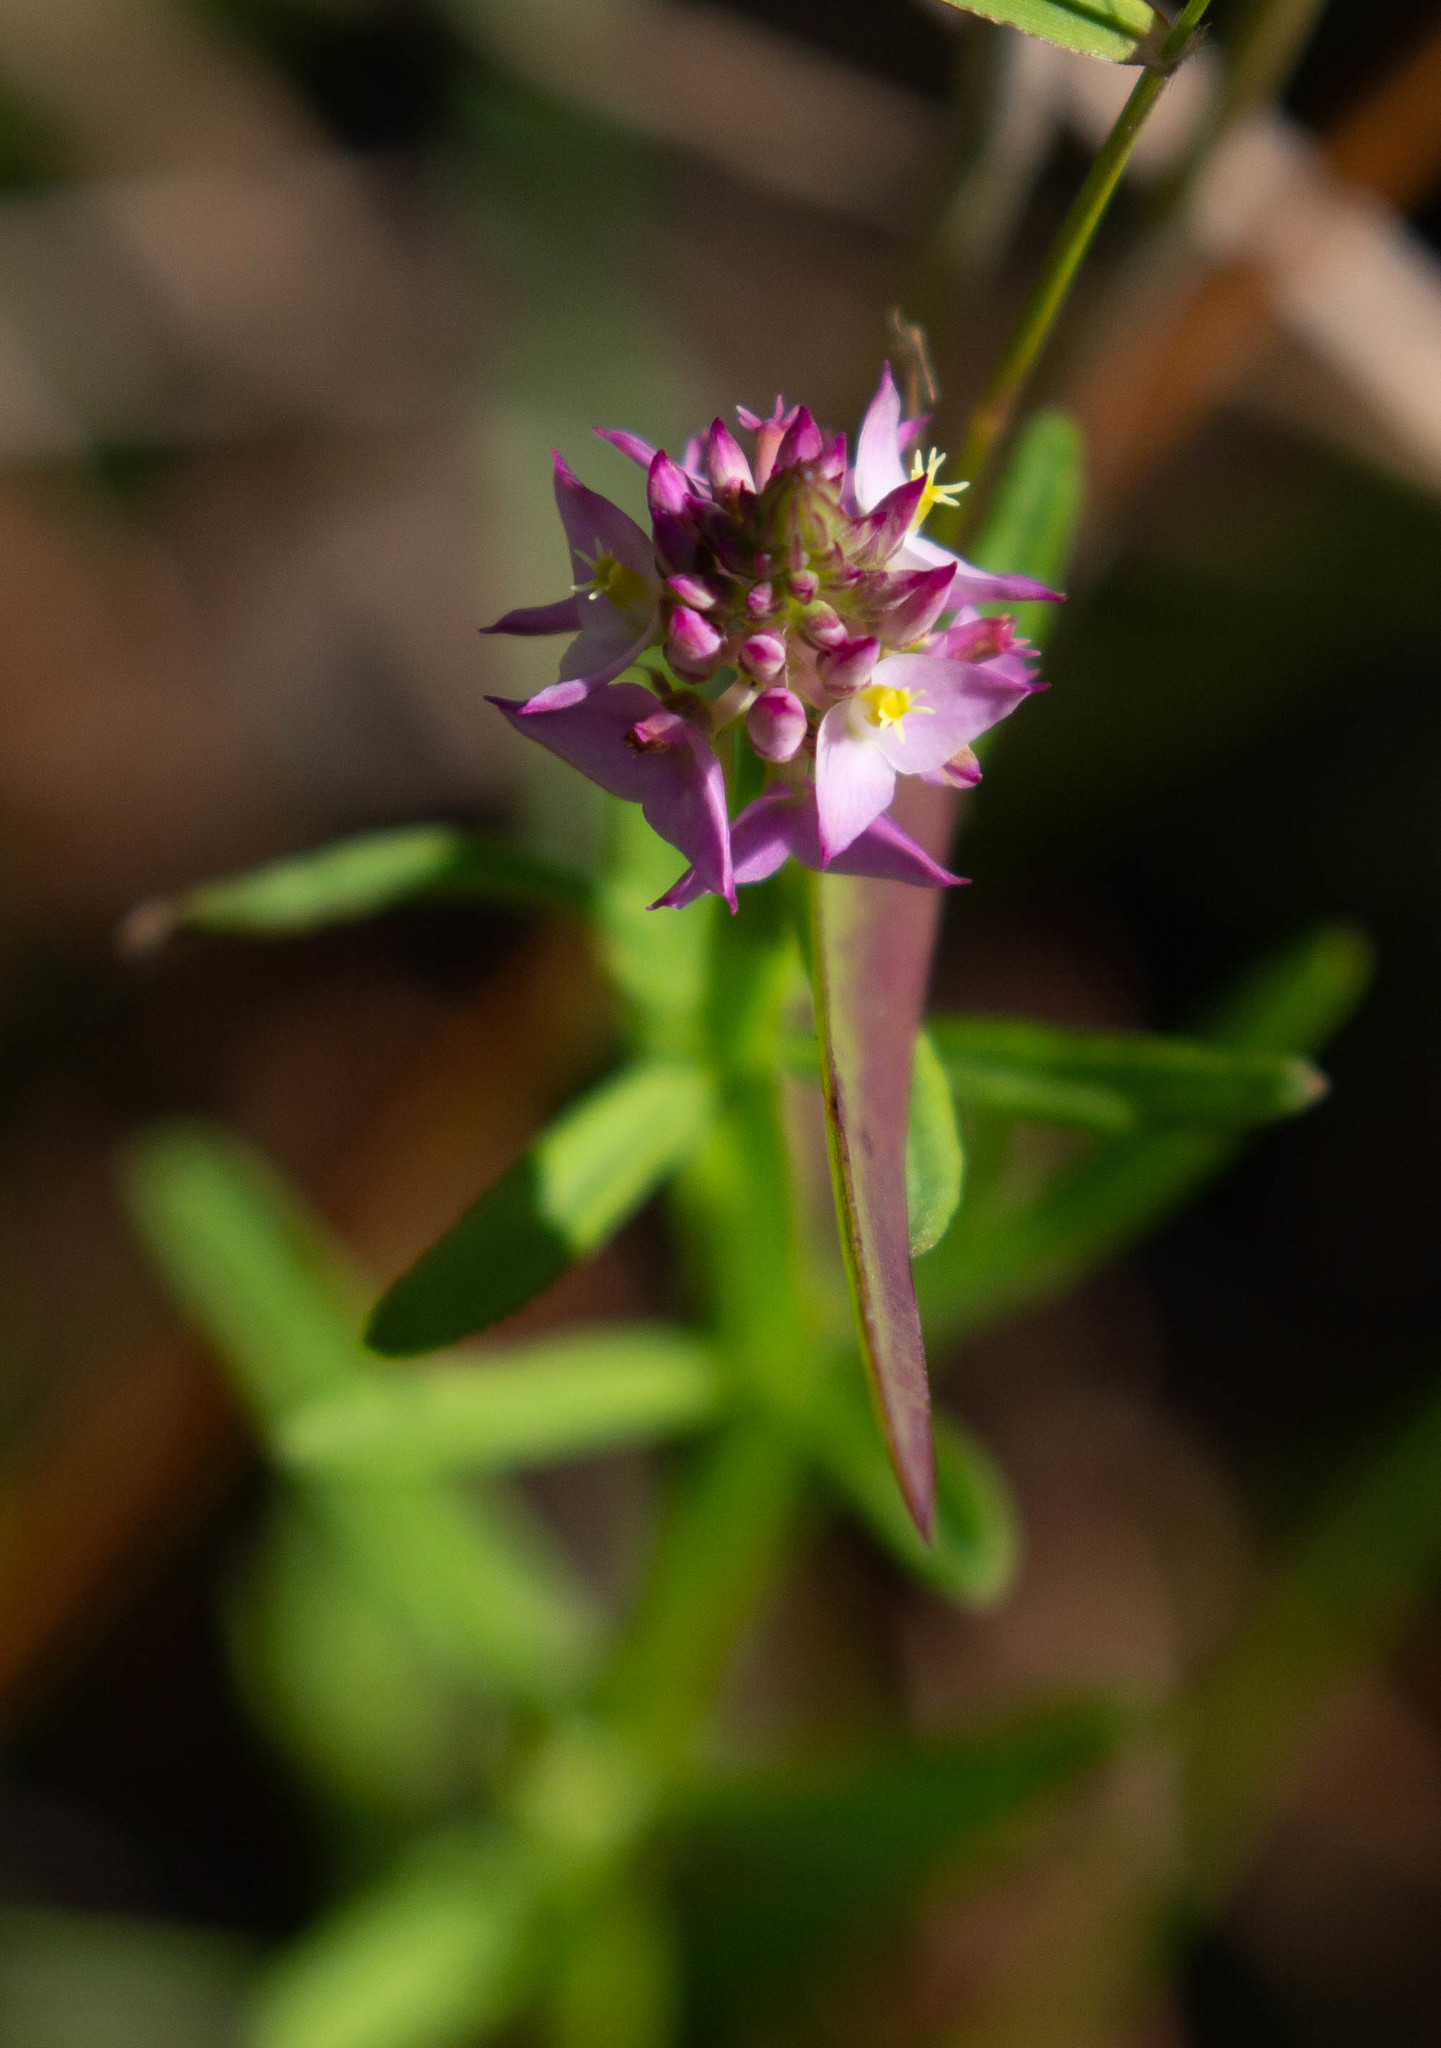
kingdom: Plantae
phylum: Tracheophyta
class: Magnoliopsida
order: Fabales
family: Polygalaceae
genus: Polygala
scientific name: Polygala cruciata
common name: Drumheads
